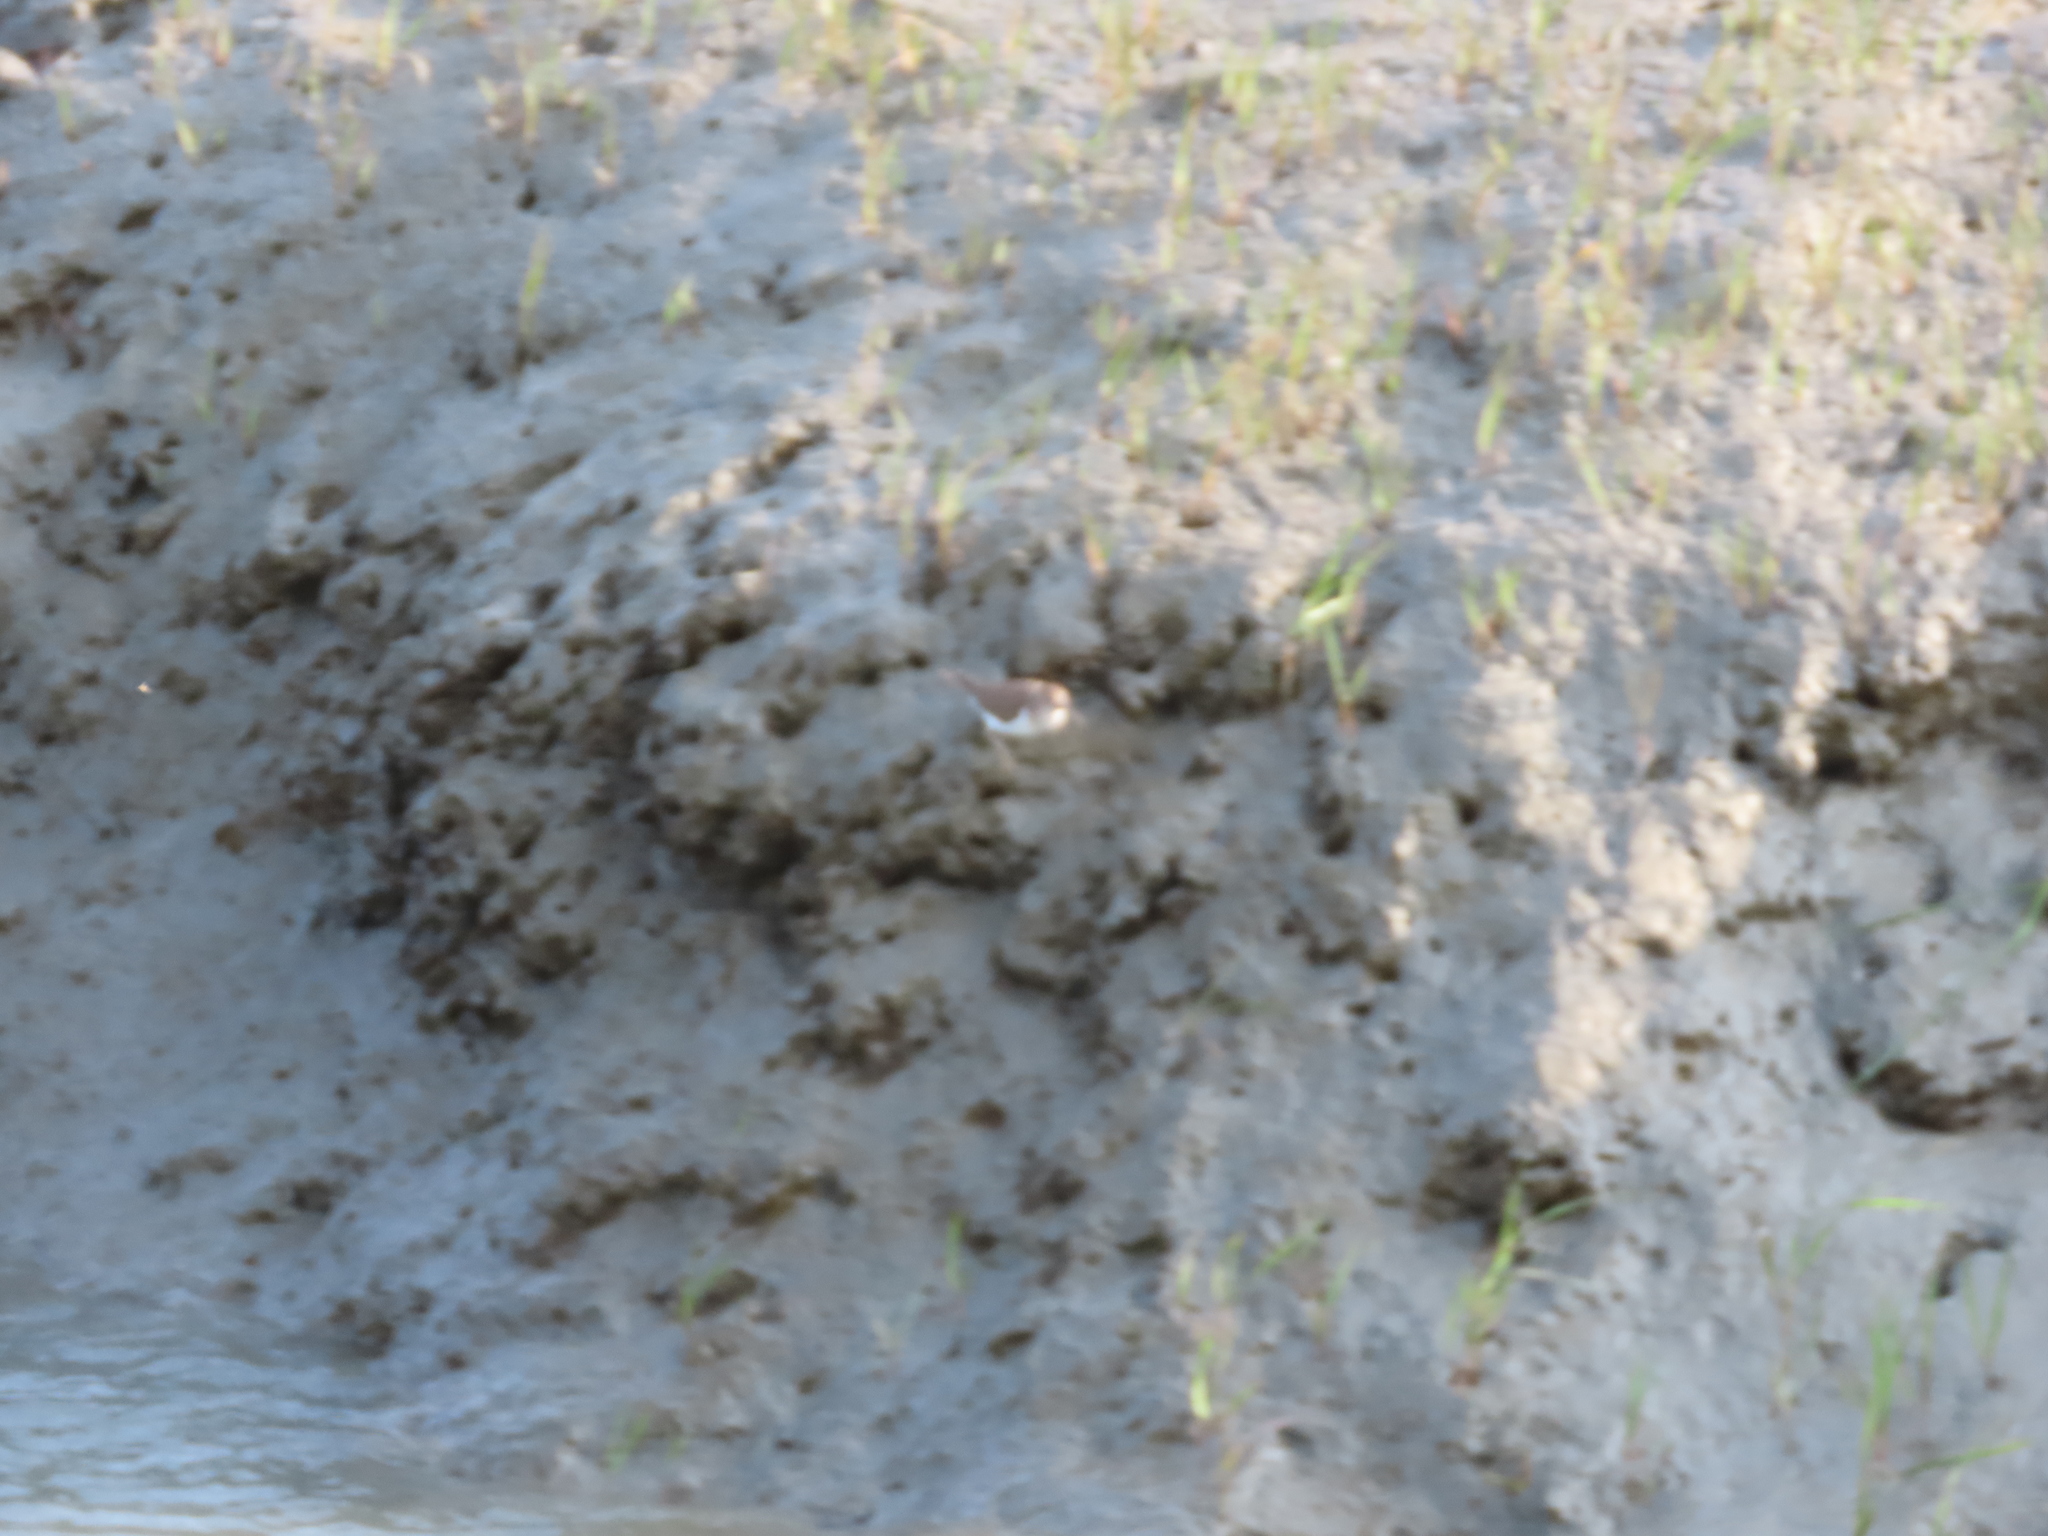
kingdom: Animalia
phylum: Chordata
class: Aves
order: Charadriiformes
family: Scolopacidae
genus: Actitis
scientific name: Actitis hypoleucos
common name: Common sandpiper
